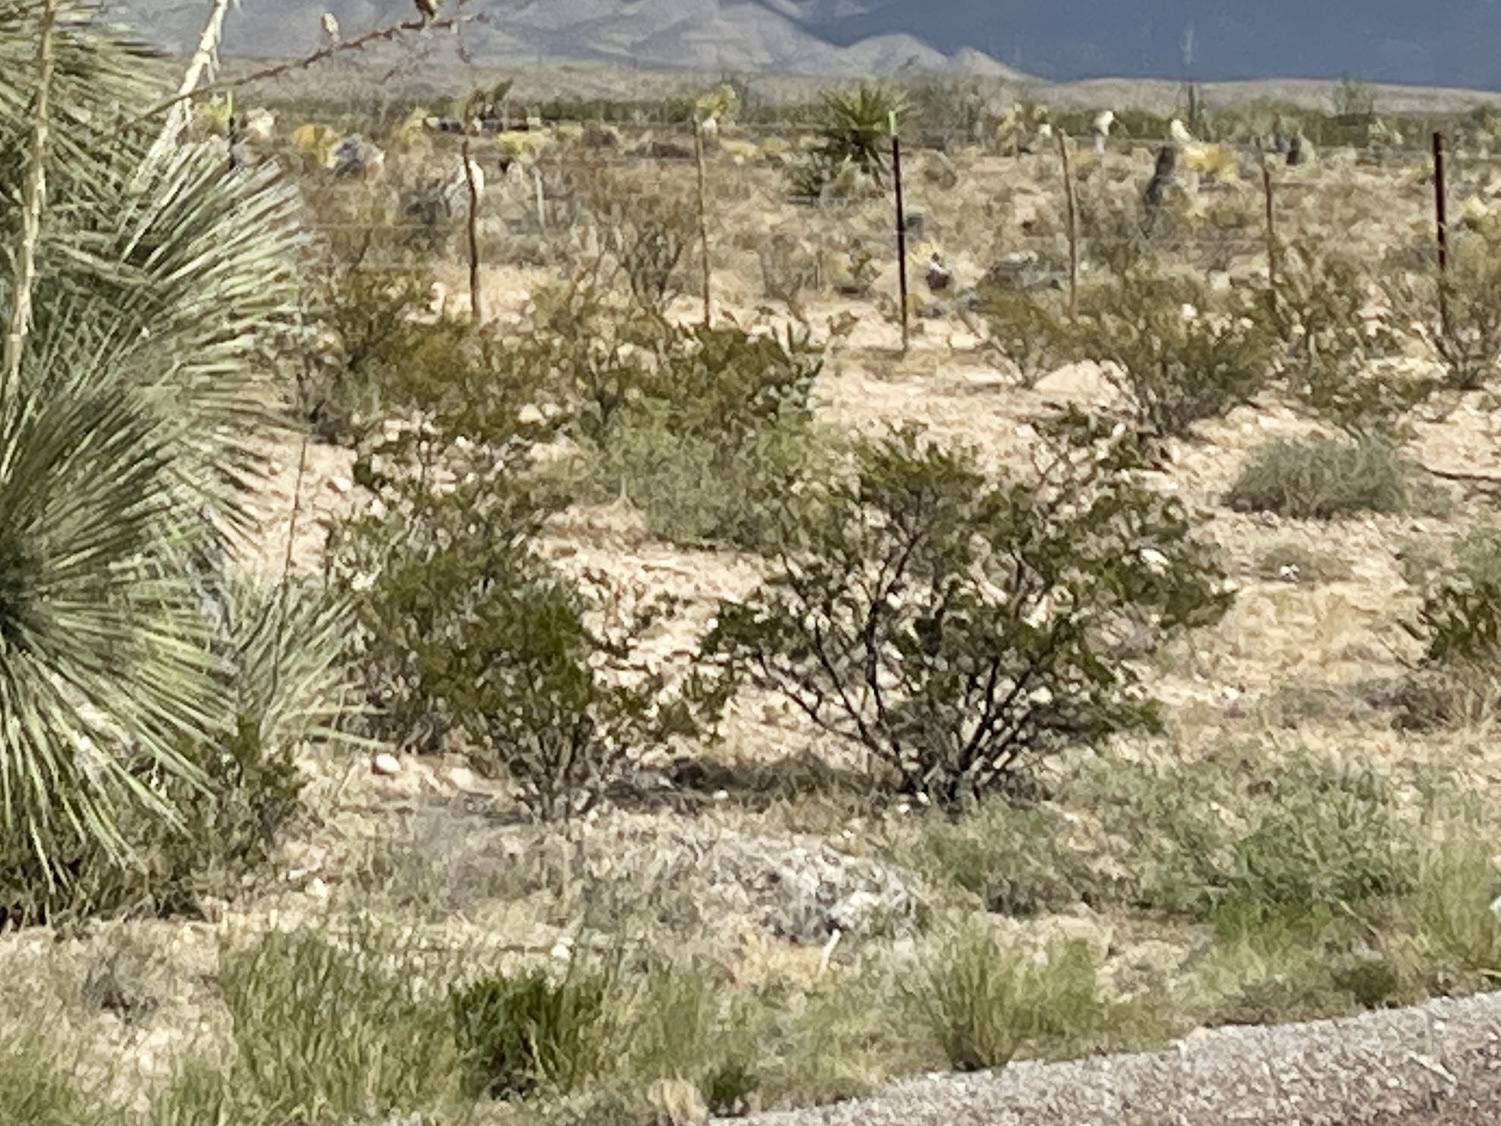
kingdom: Plantae
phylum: Tracheophyta
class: Magnoliopsida
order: Zygophyllales
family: Zygophyllaceae
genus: Larrea
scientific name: Larrea tridentata
